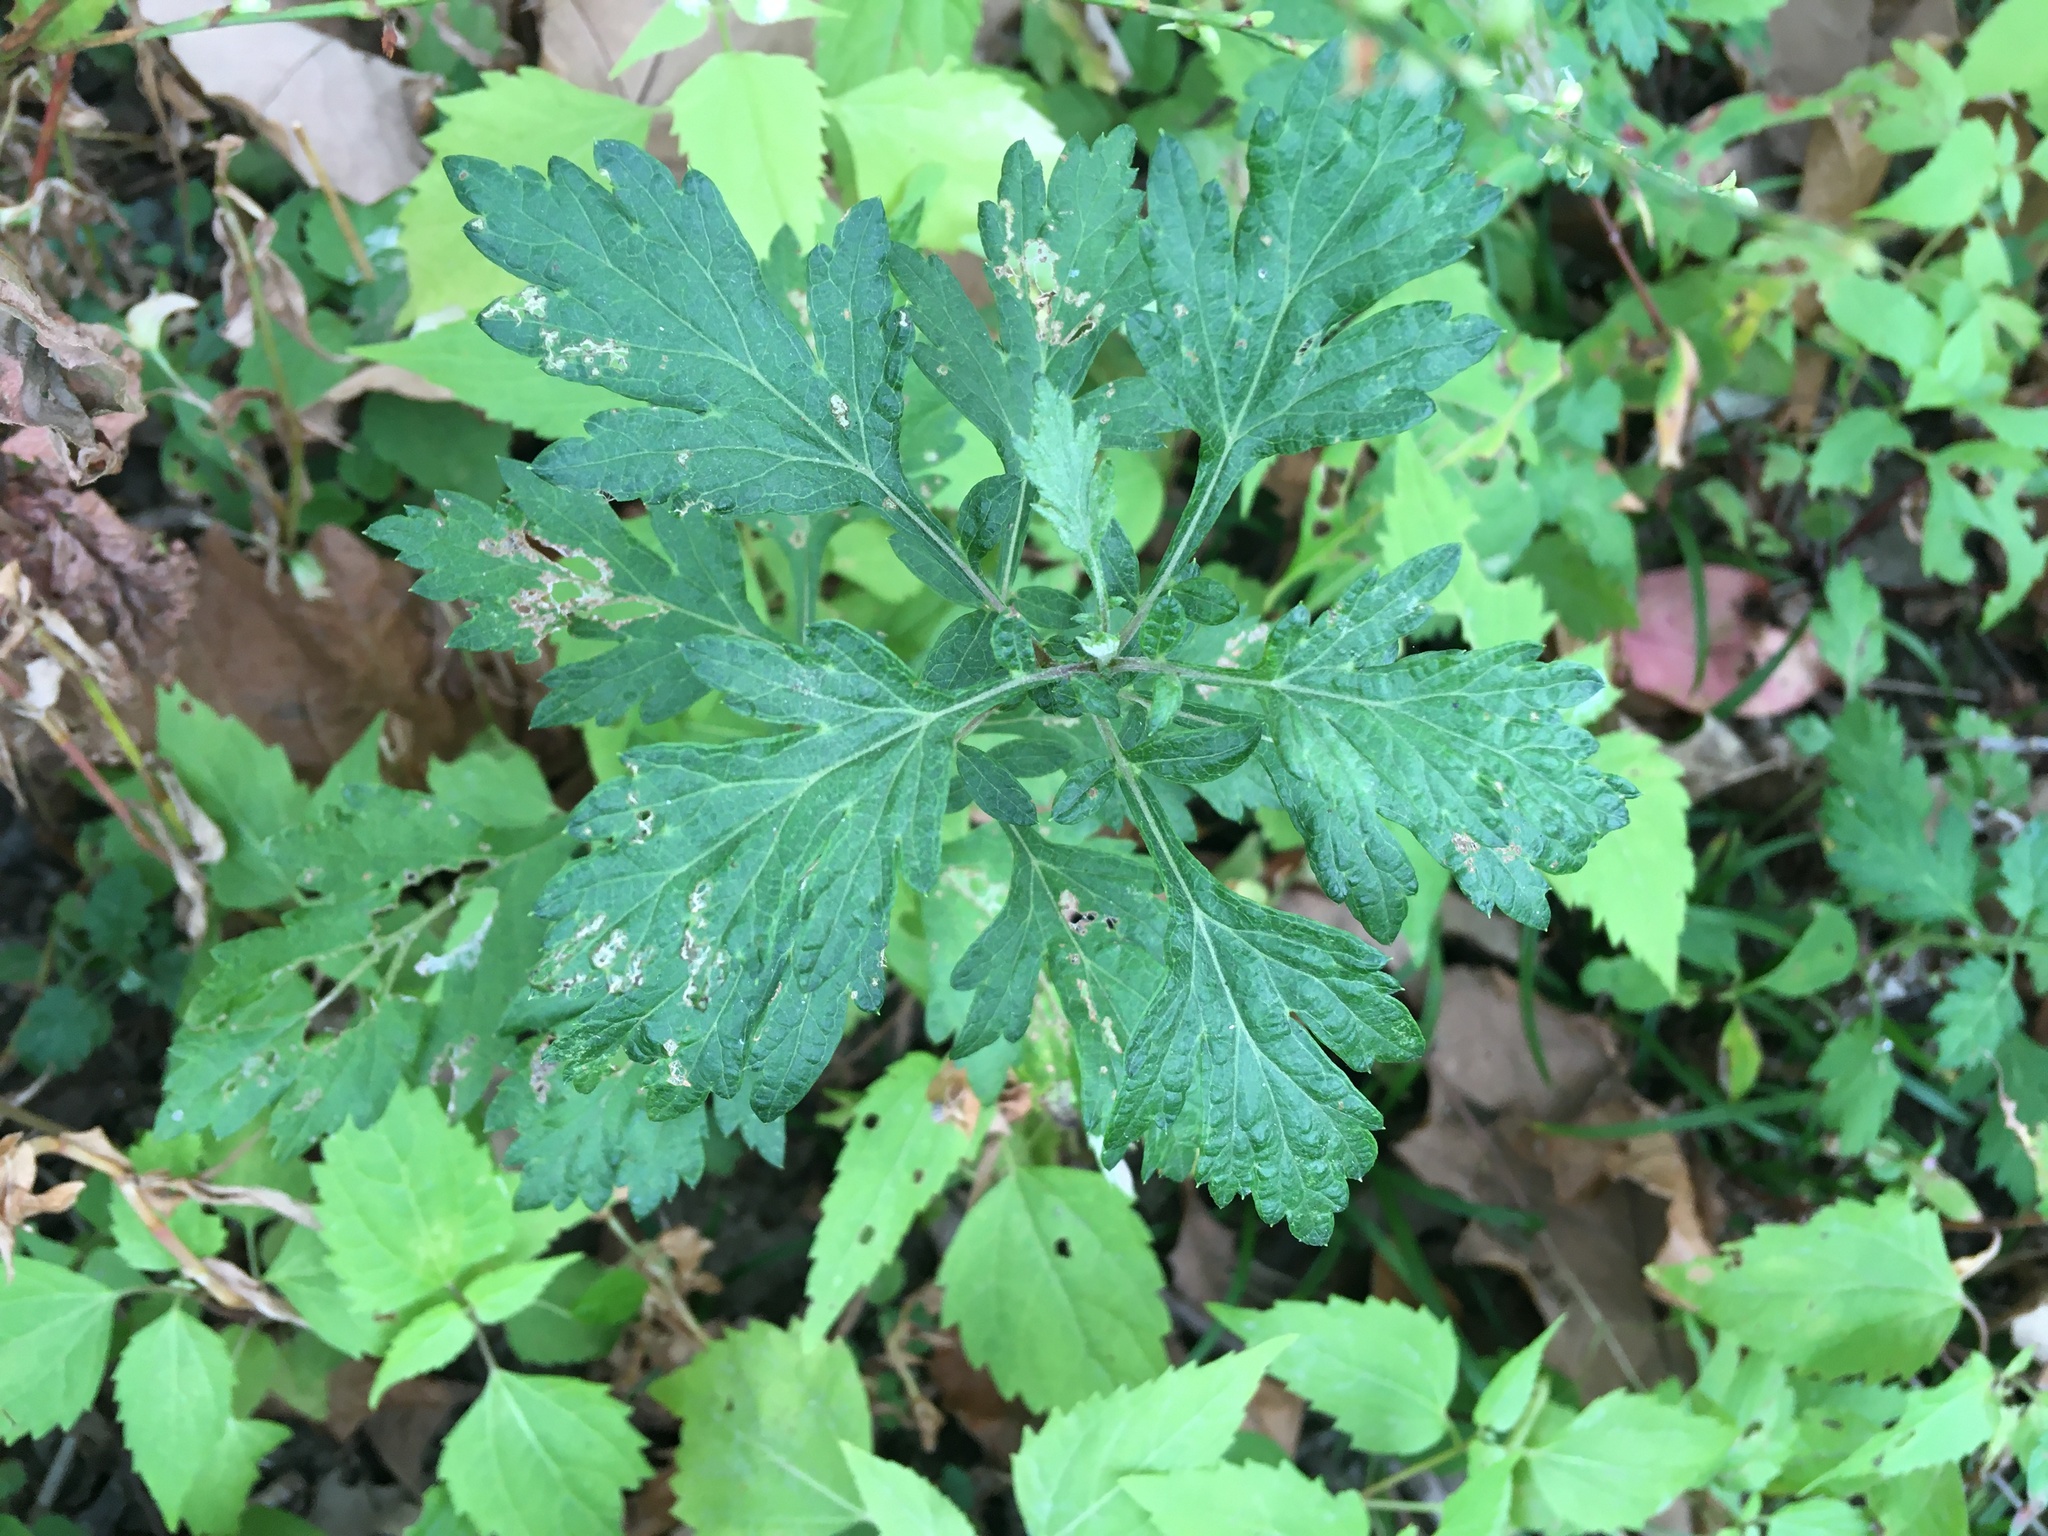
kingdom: Plantae
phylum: Tracheophyta
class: Magnoliopsida
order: Asterales
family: Asteraceae
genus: Artemisia
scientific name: Artemisia vulgaris
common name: Mugwort
